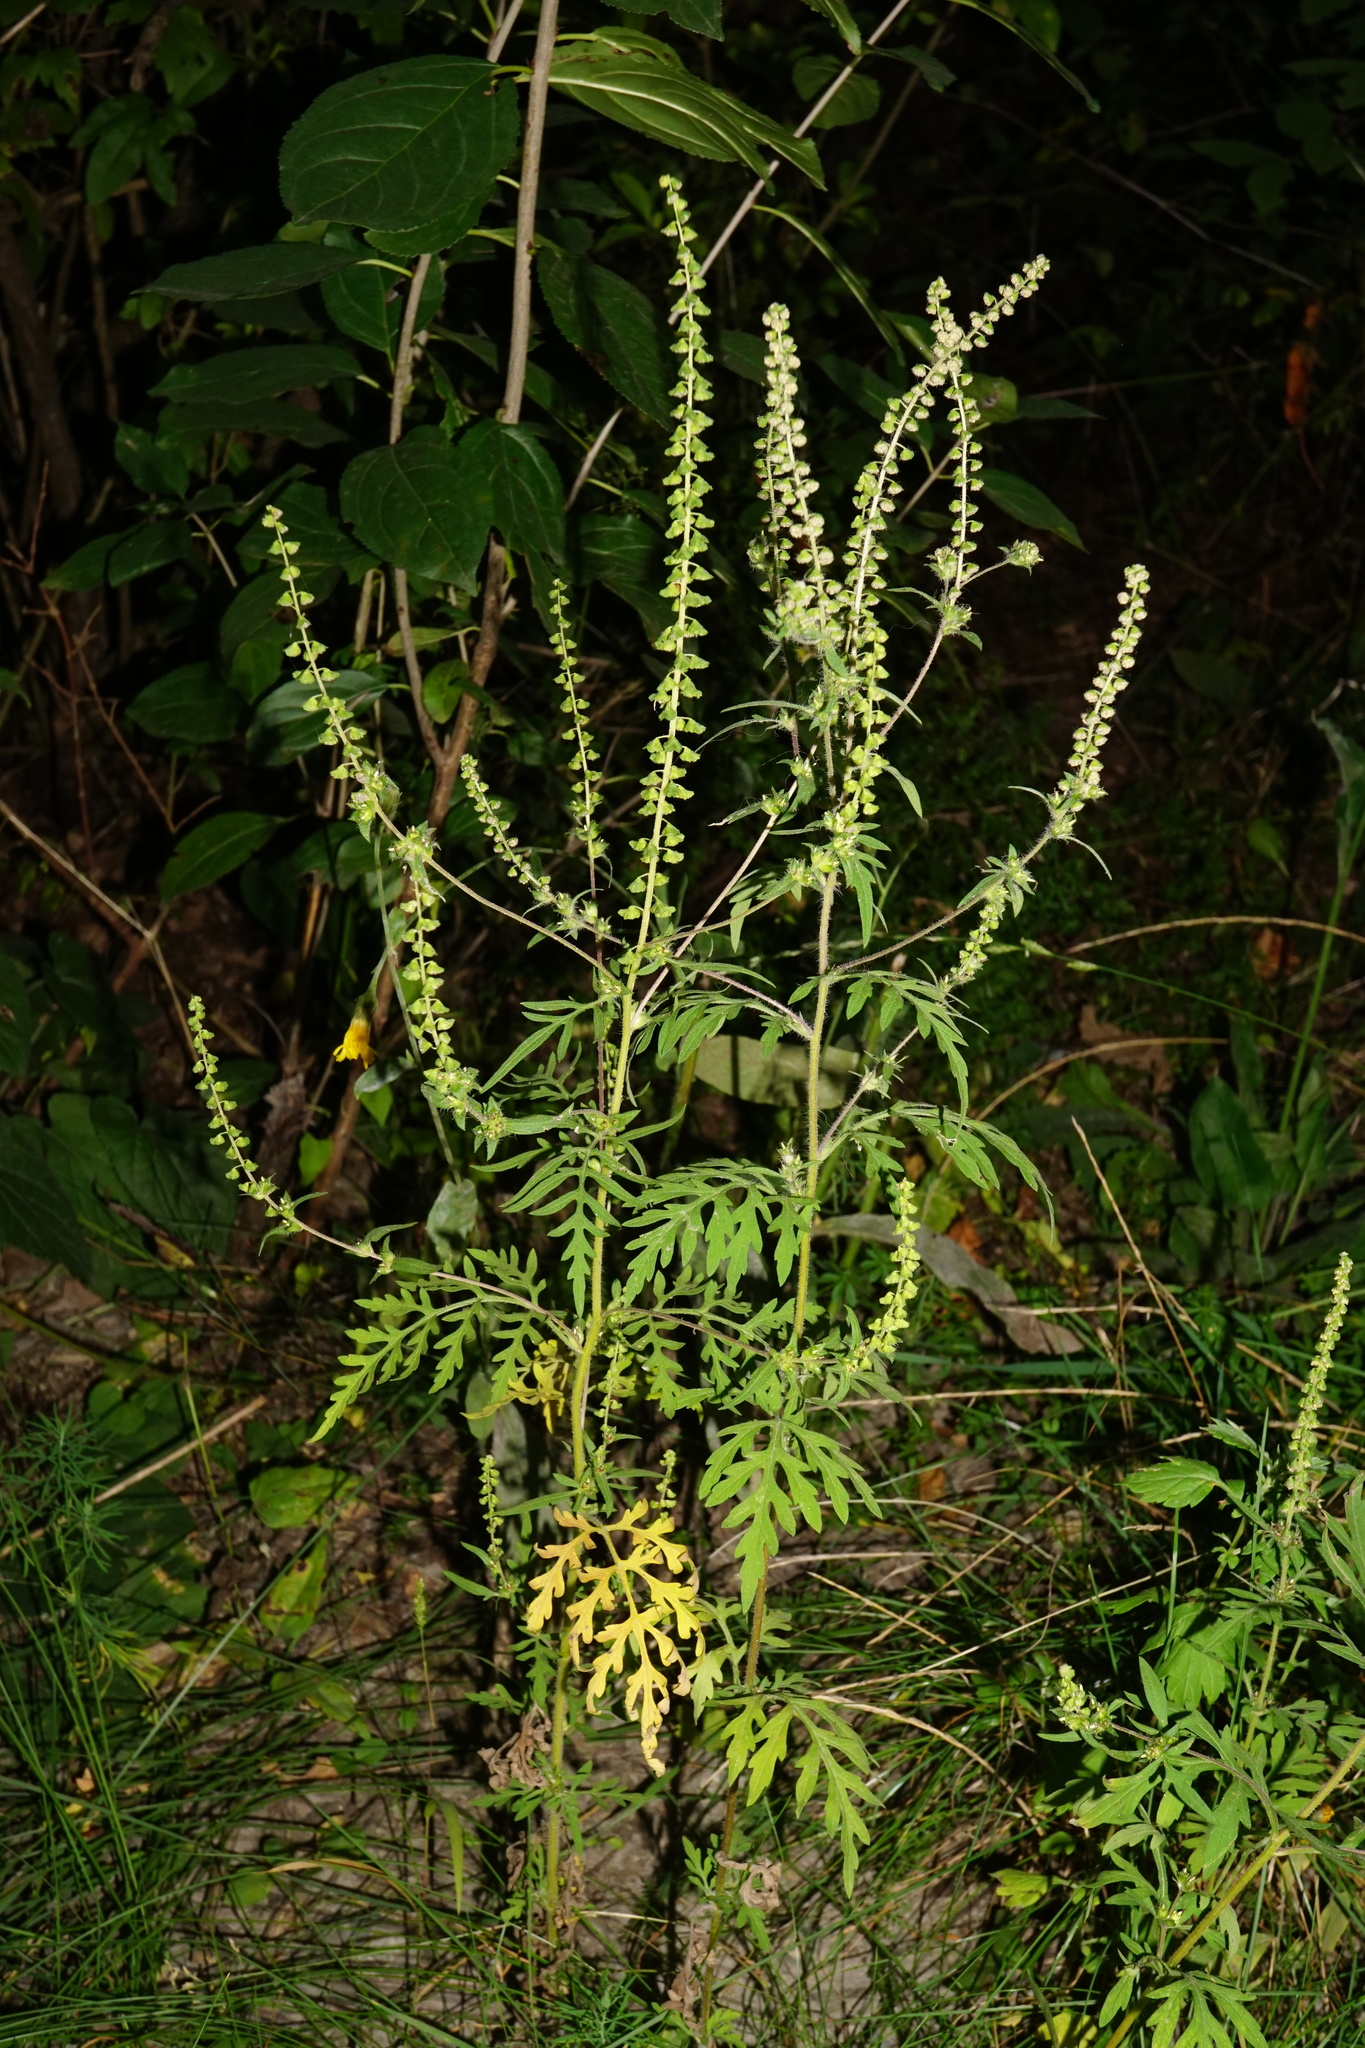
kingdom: Plantae
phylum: Tracheophyta
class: Magnoliopsida
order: Asterales
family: Asteraceae
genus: Ambrosia
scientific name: Ambrosia artemisiifolia
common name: Annual ragweed
